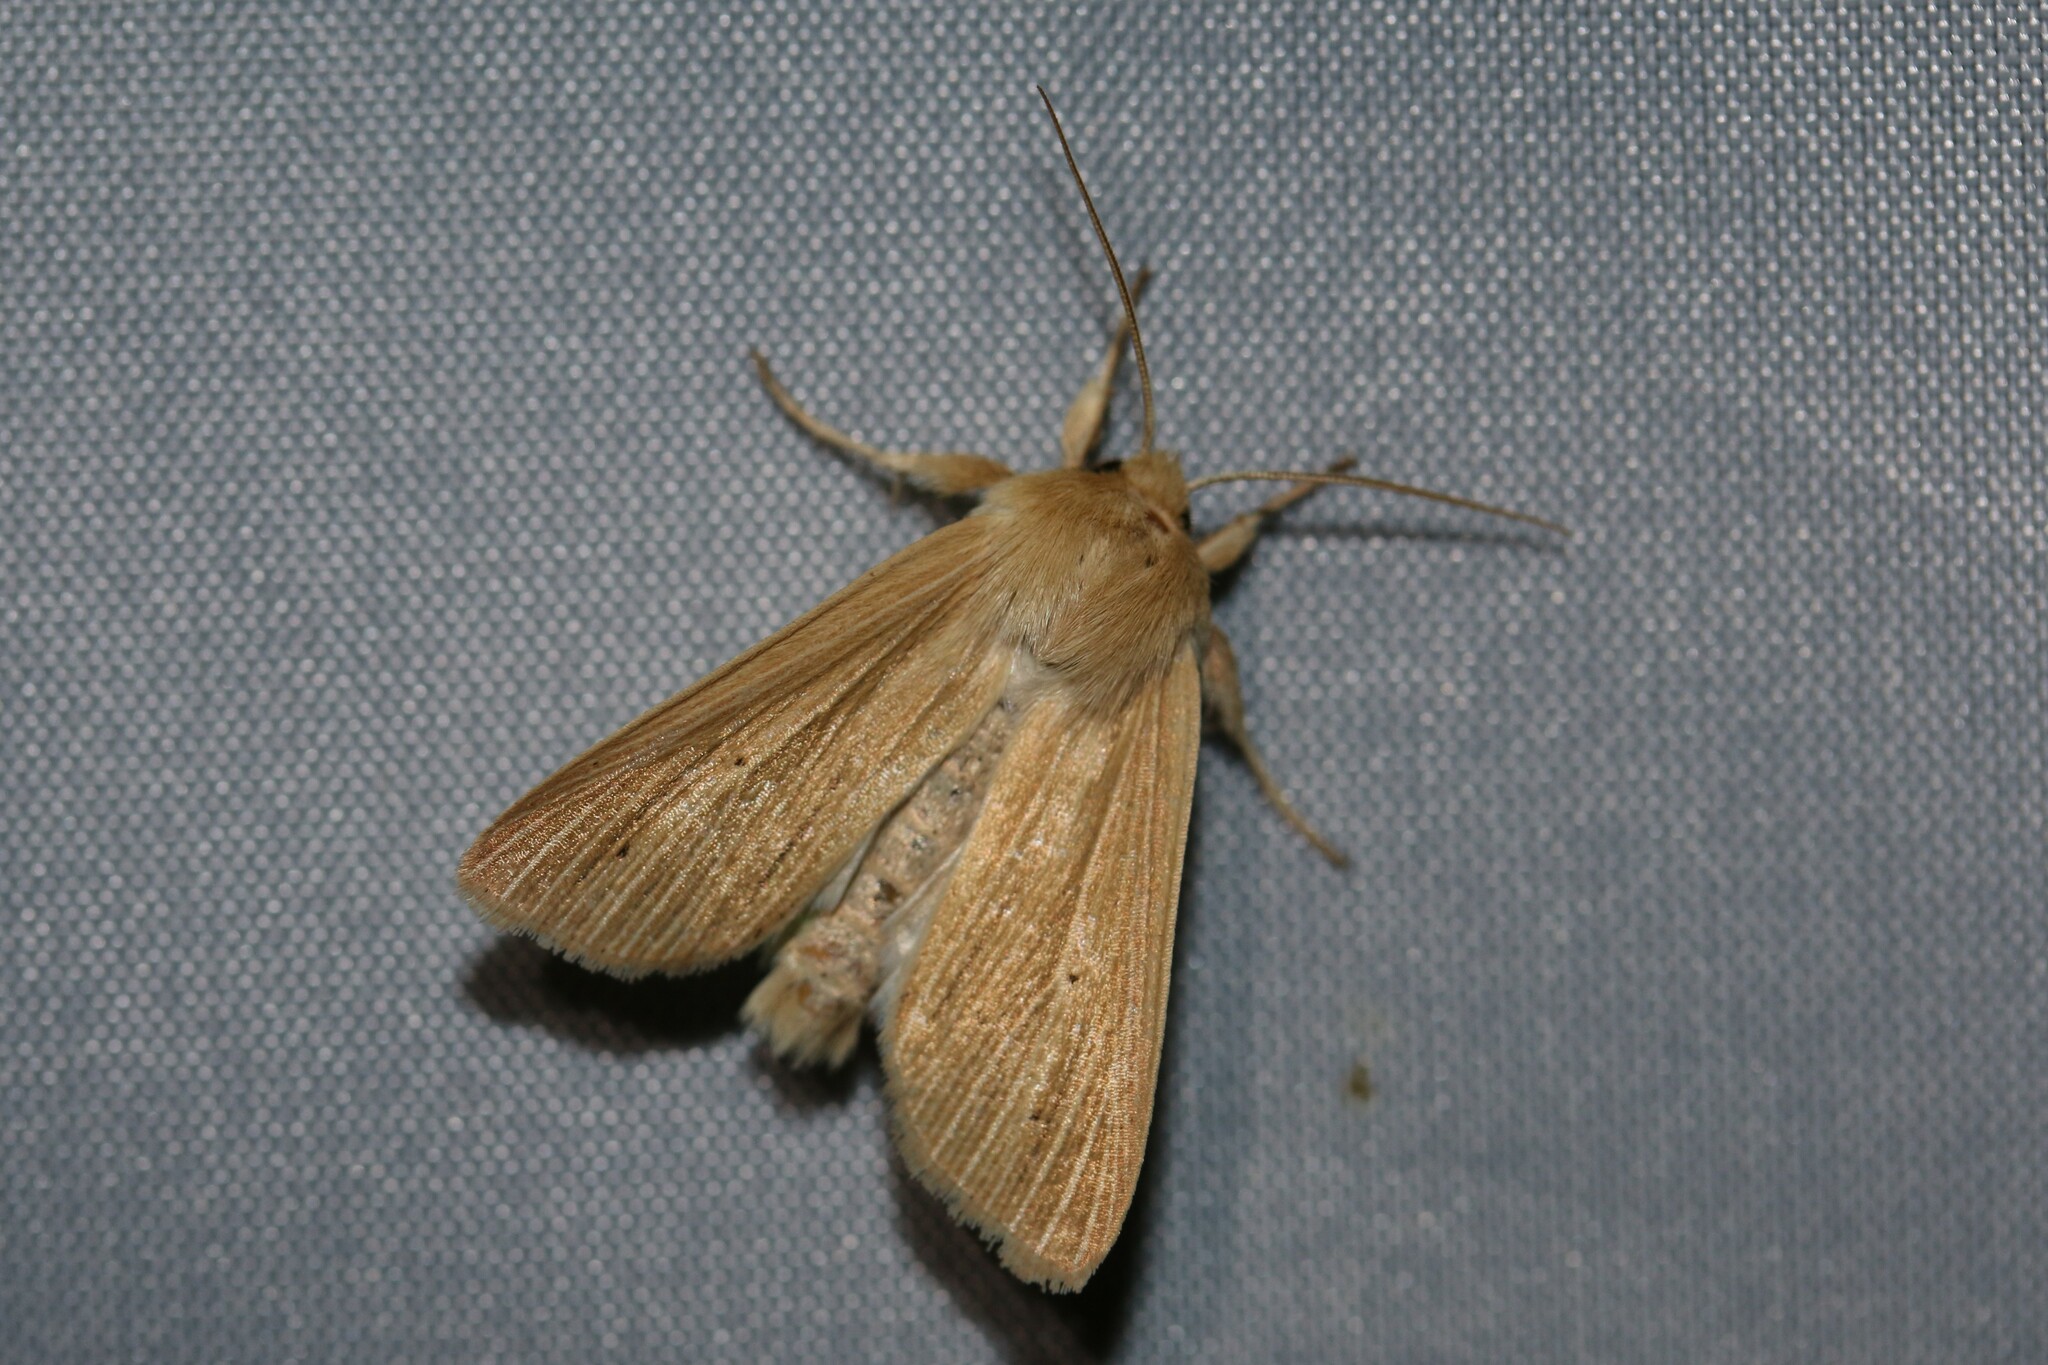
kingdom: Animalia
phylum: Arthropoda
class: Insecta
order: Lepidoptera
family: Noctuidae
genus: Mythimna
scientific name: Mythimna pallens
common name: Common wainscot
